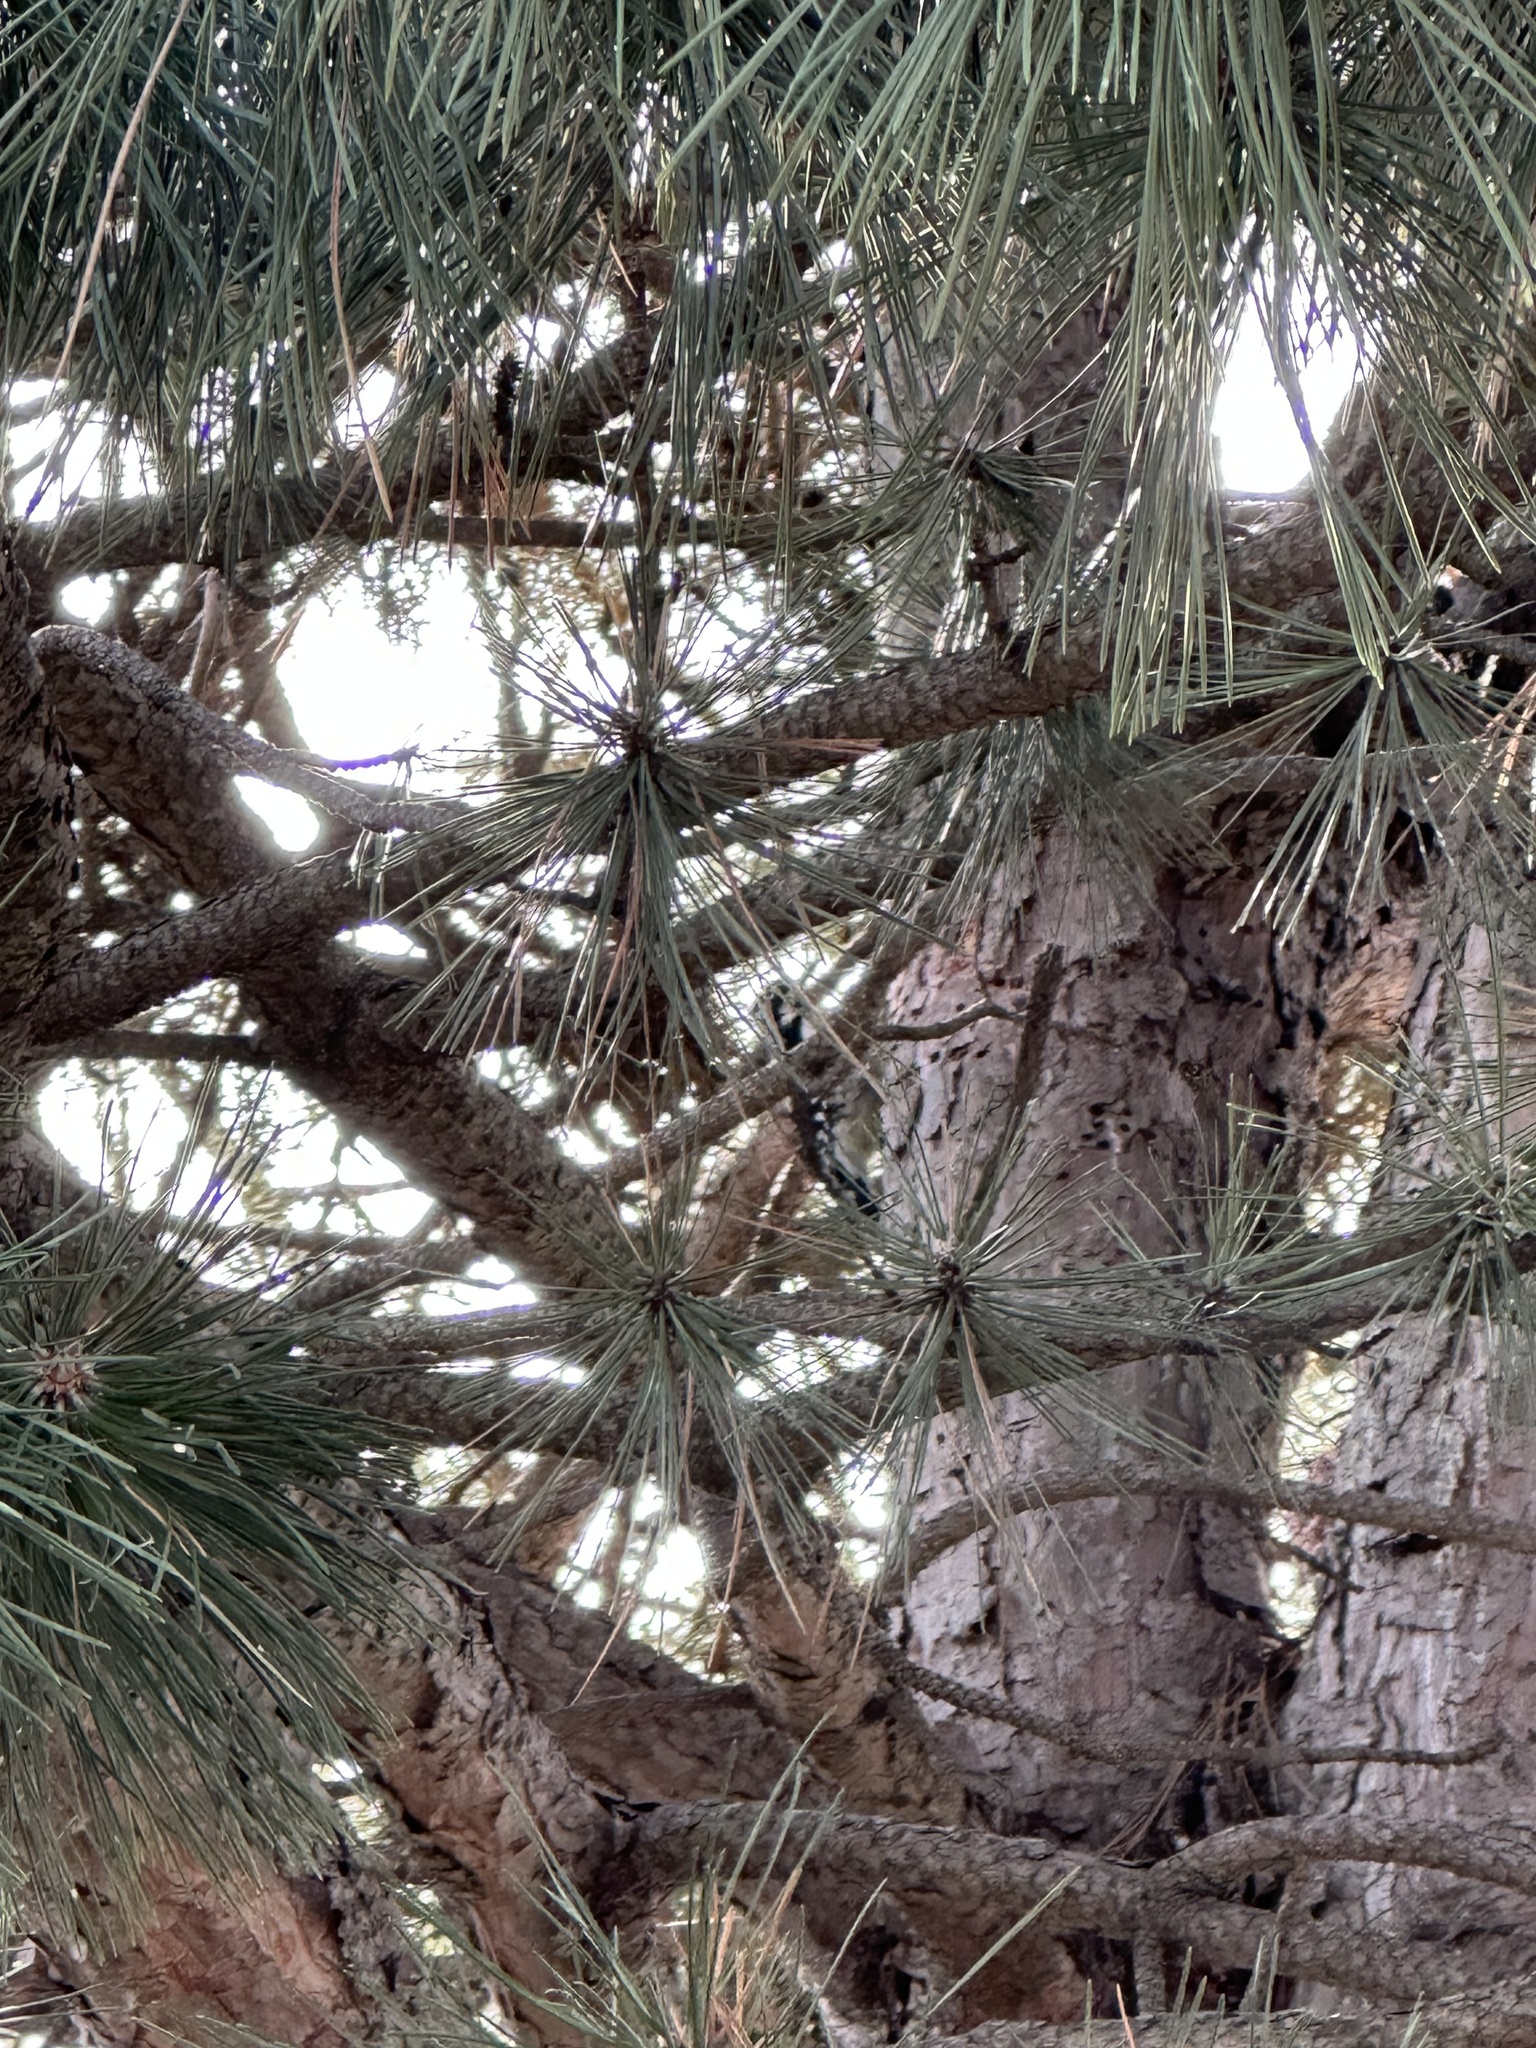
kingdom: Animalia
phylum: Chordata
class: Aves
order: Piciformes
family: Picidae
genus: Sphyrapicus
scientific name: Sphyrapicus varius
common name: Yellow-bellied sapsucker
